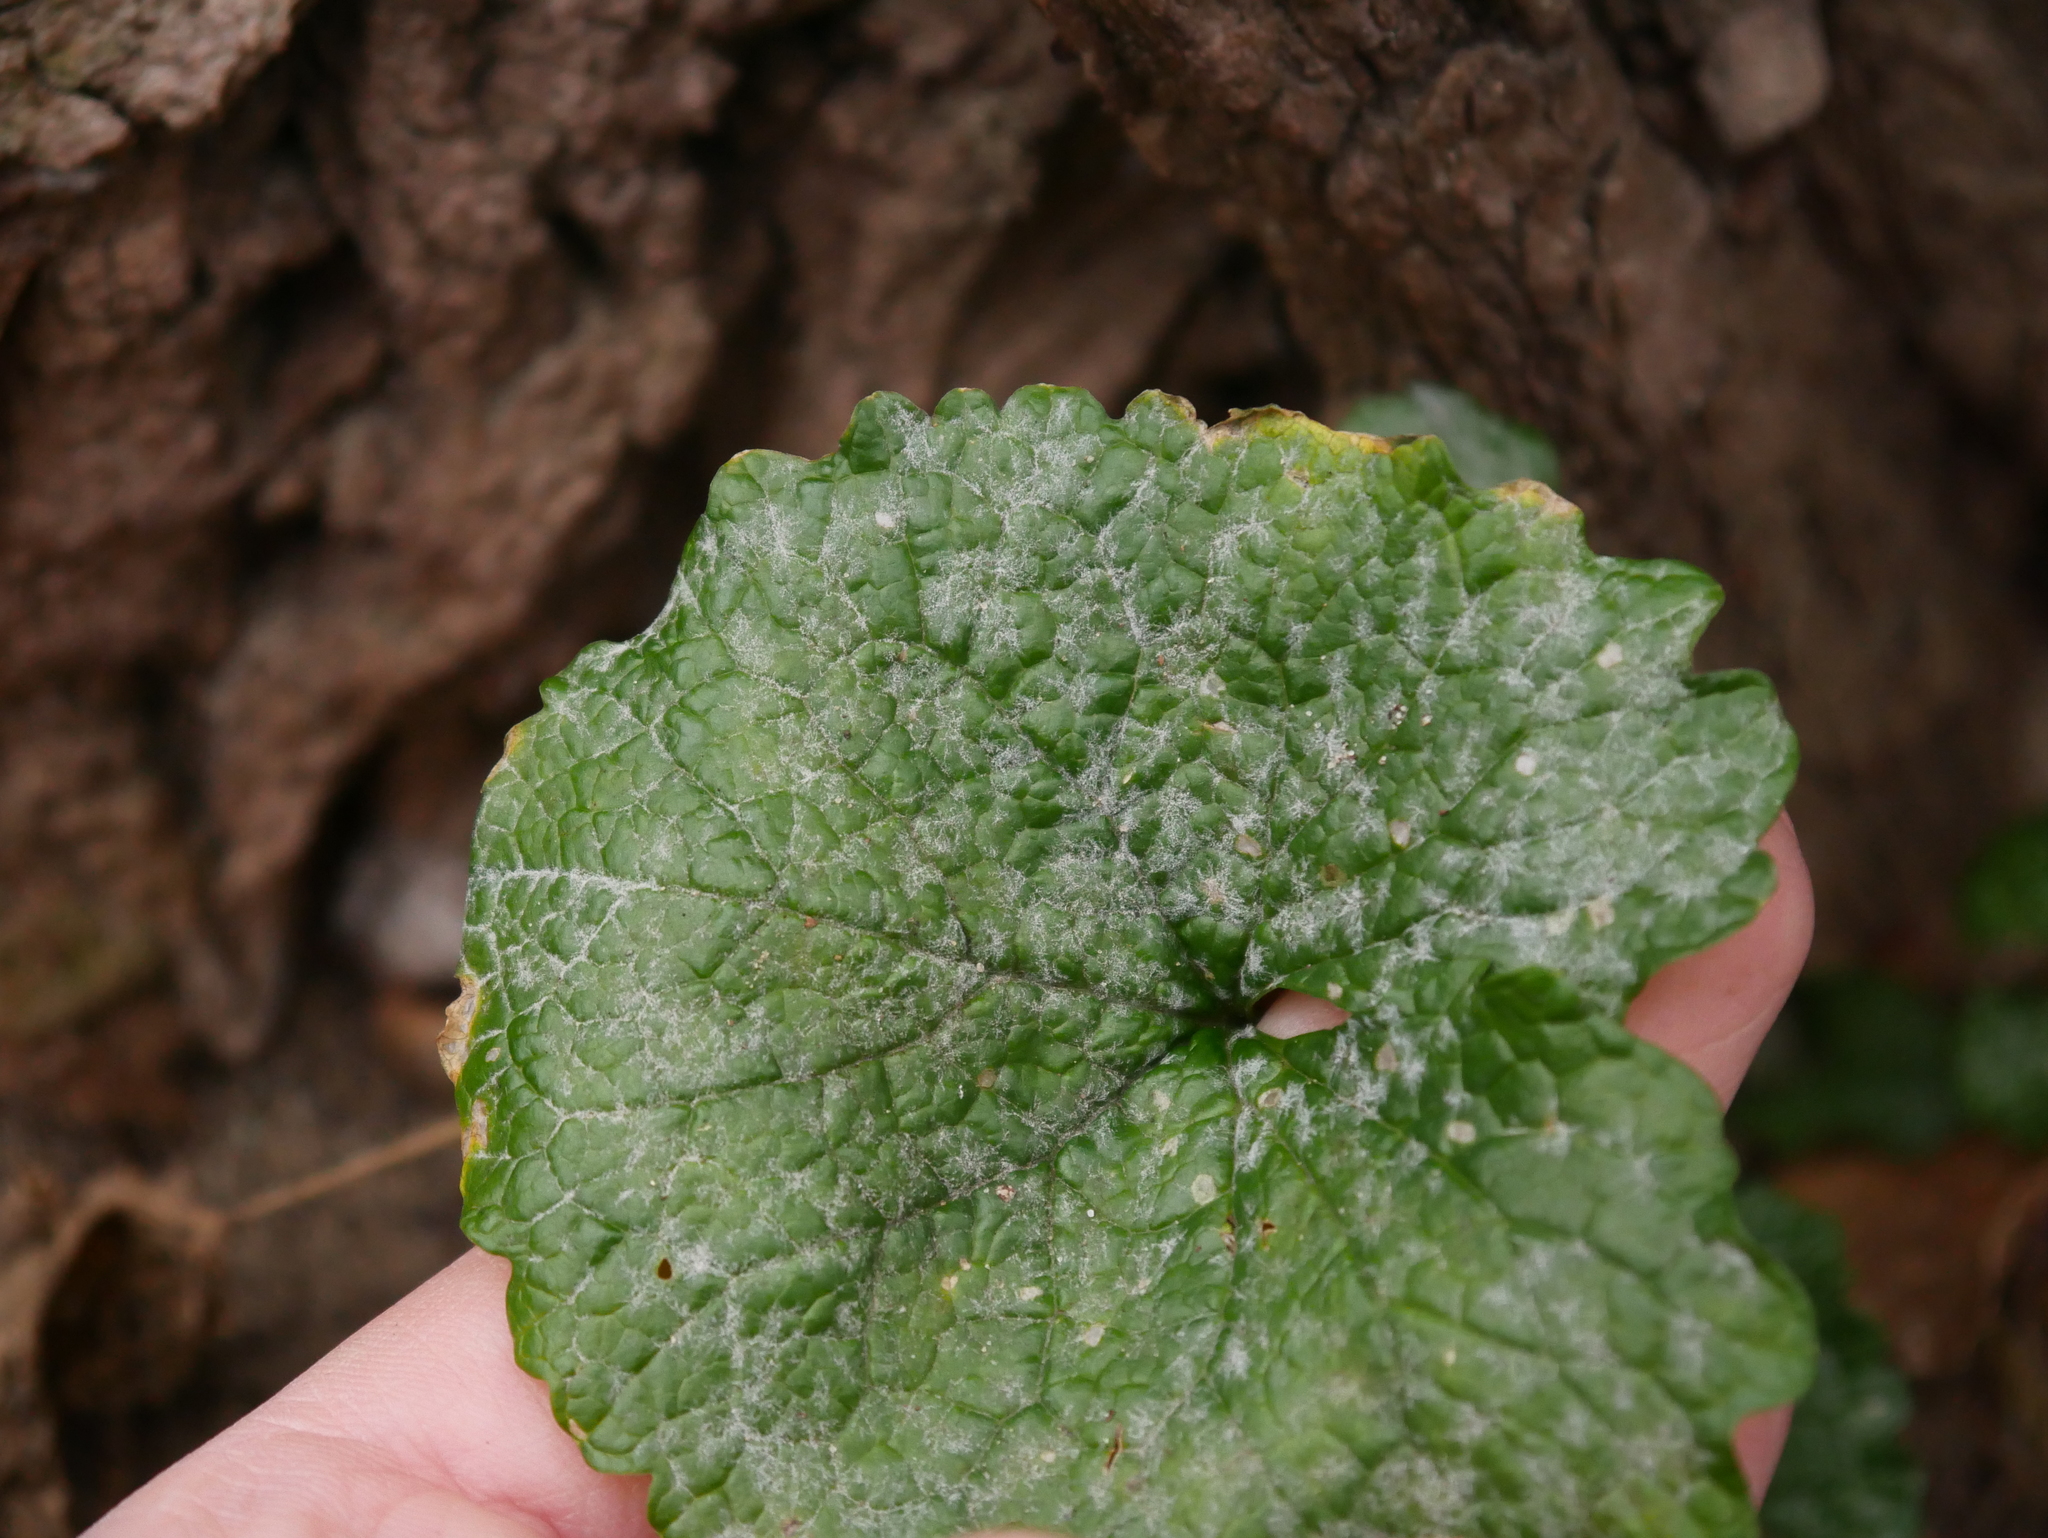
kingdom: Fungi
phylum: Ascomycota
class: Leotiomycetes
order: Helotiales
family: Erysiphaceae
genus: Erysiphe
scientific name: Erysiphe cruciferarum
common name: Brassica powdery mildew
